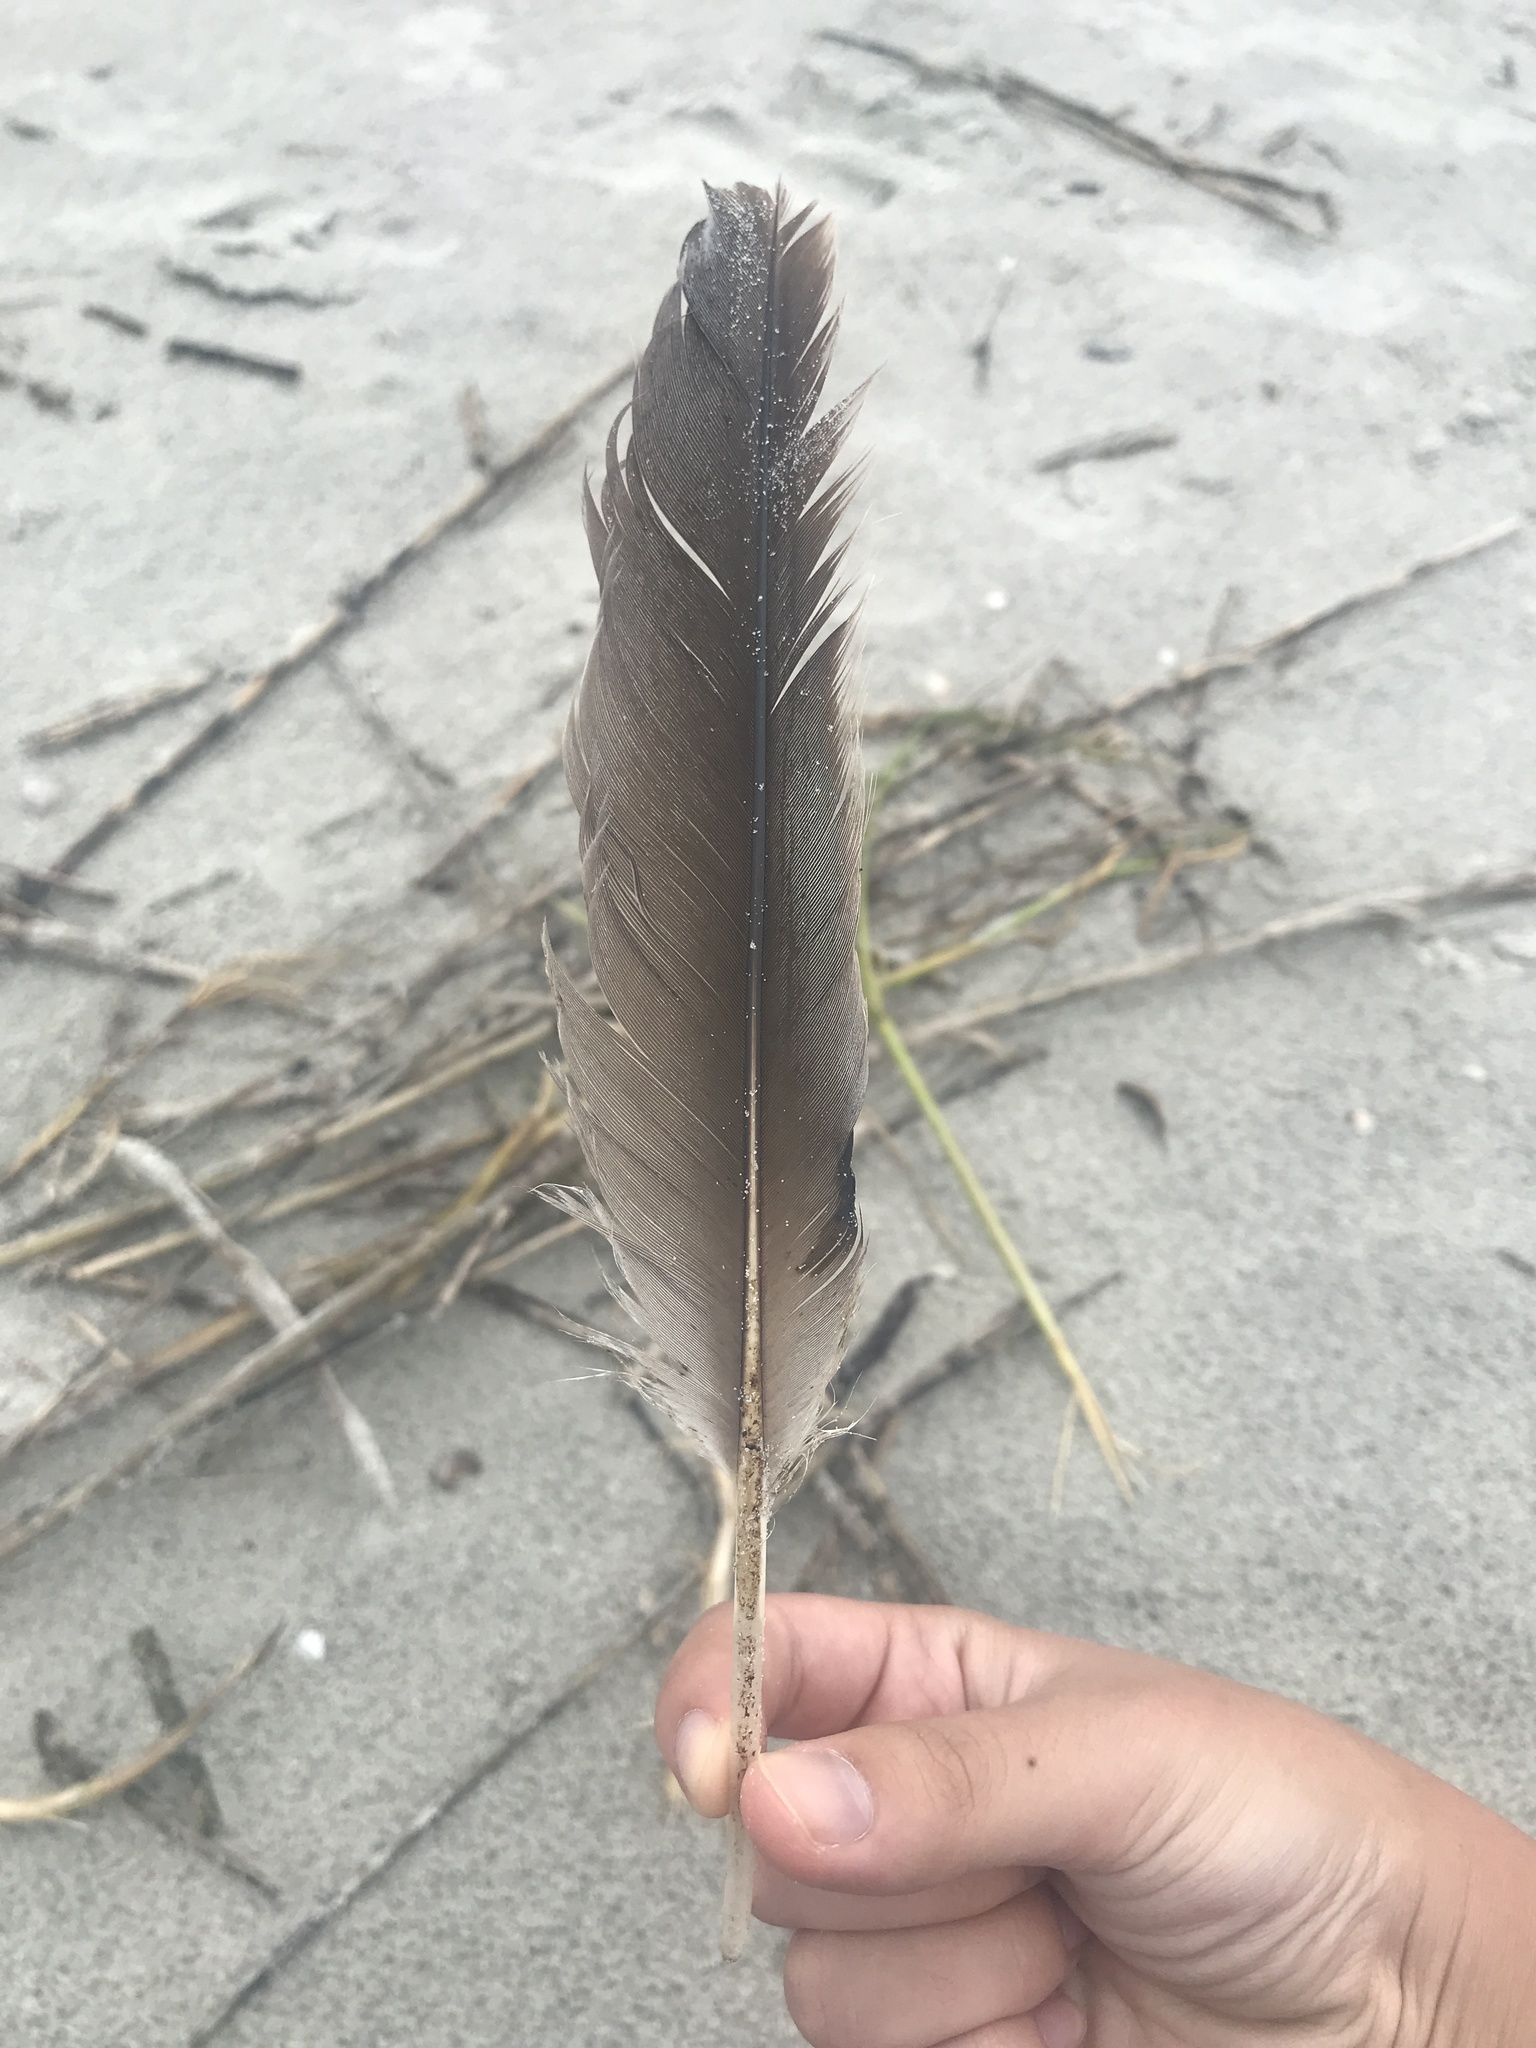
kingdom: Animalia
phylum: Chordata
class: Aves
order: Pelecaniformes
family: Pelecanidae
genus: Pelecanus
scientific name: Pelecanus occidentalis
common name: Brown pelican
